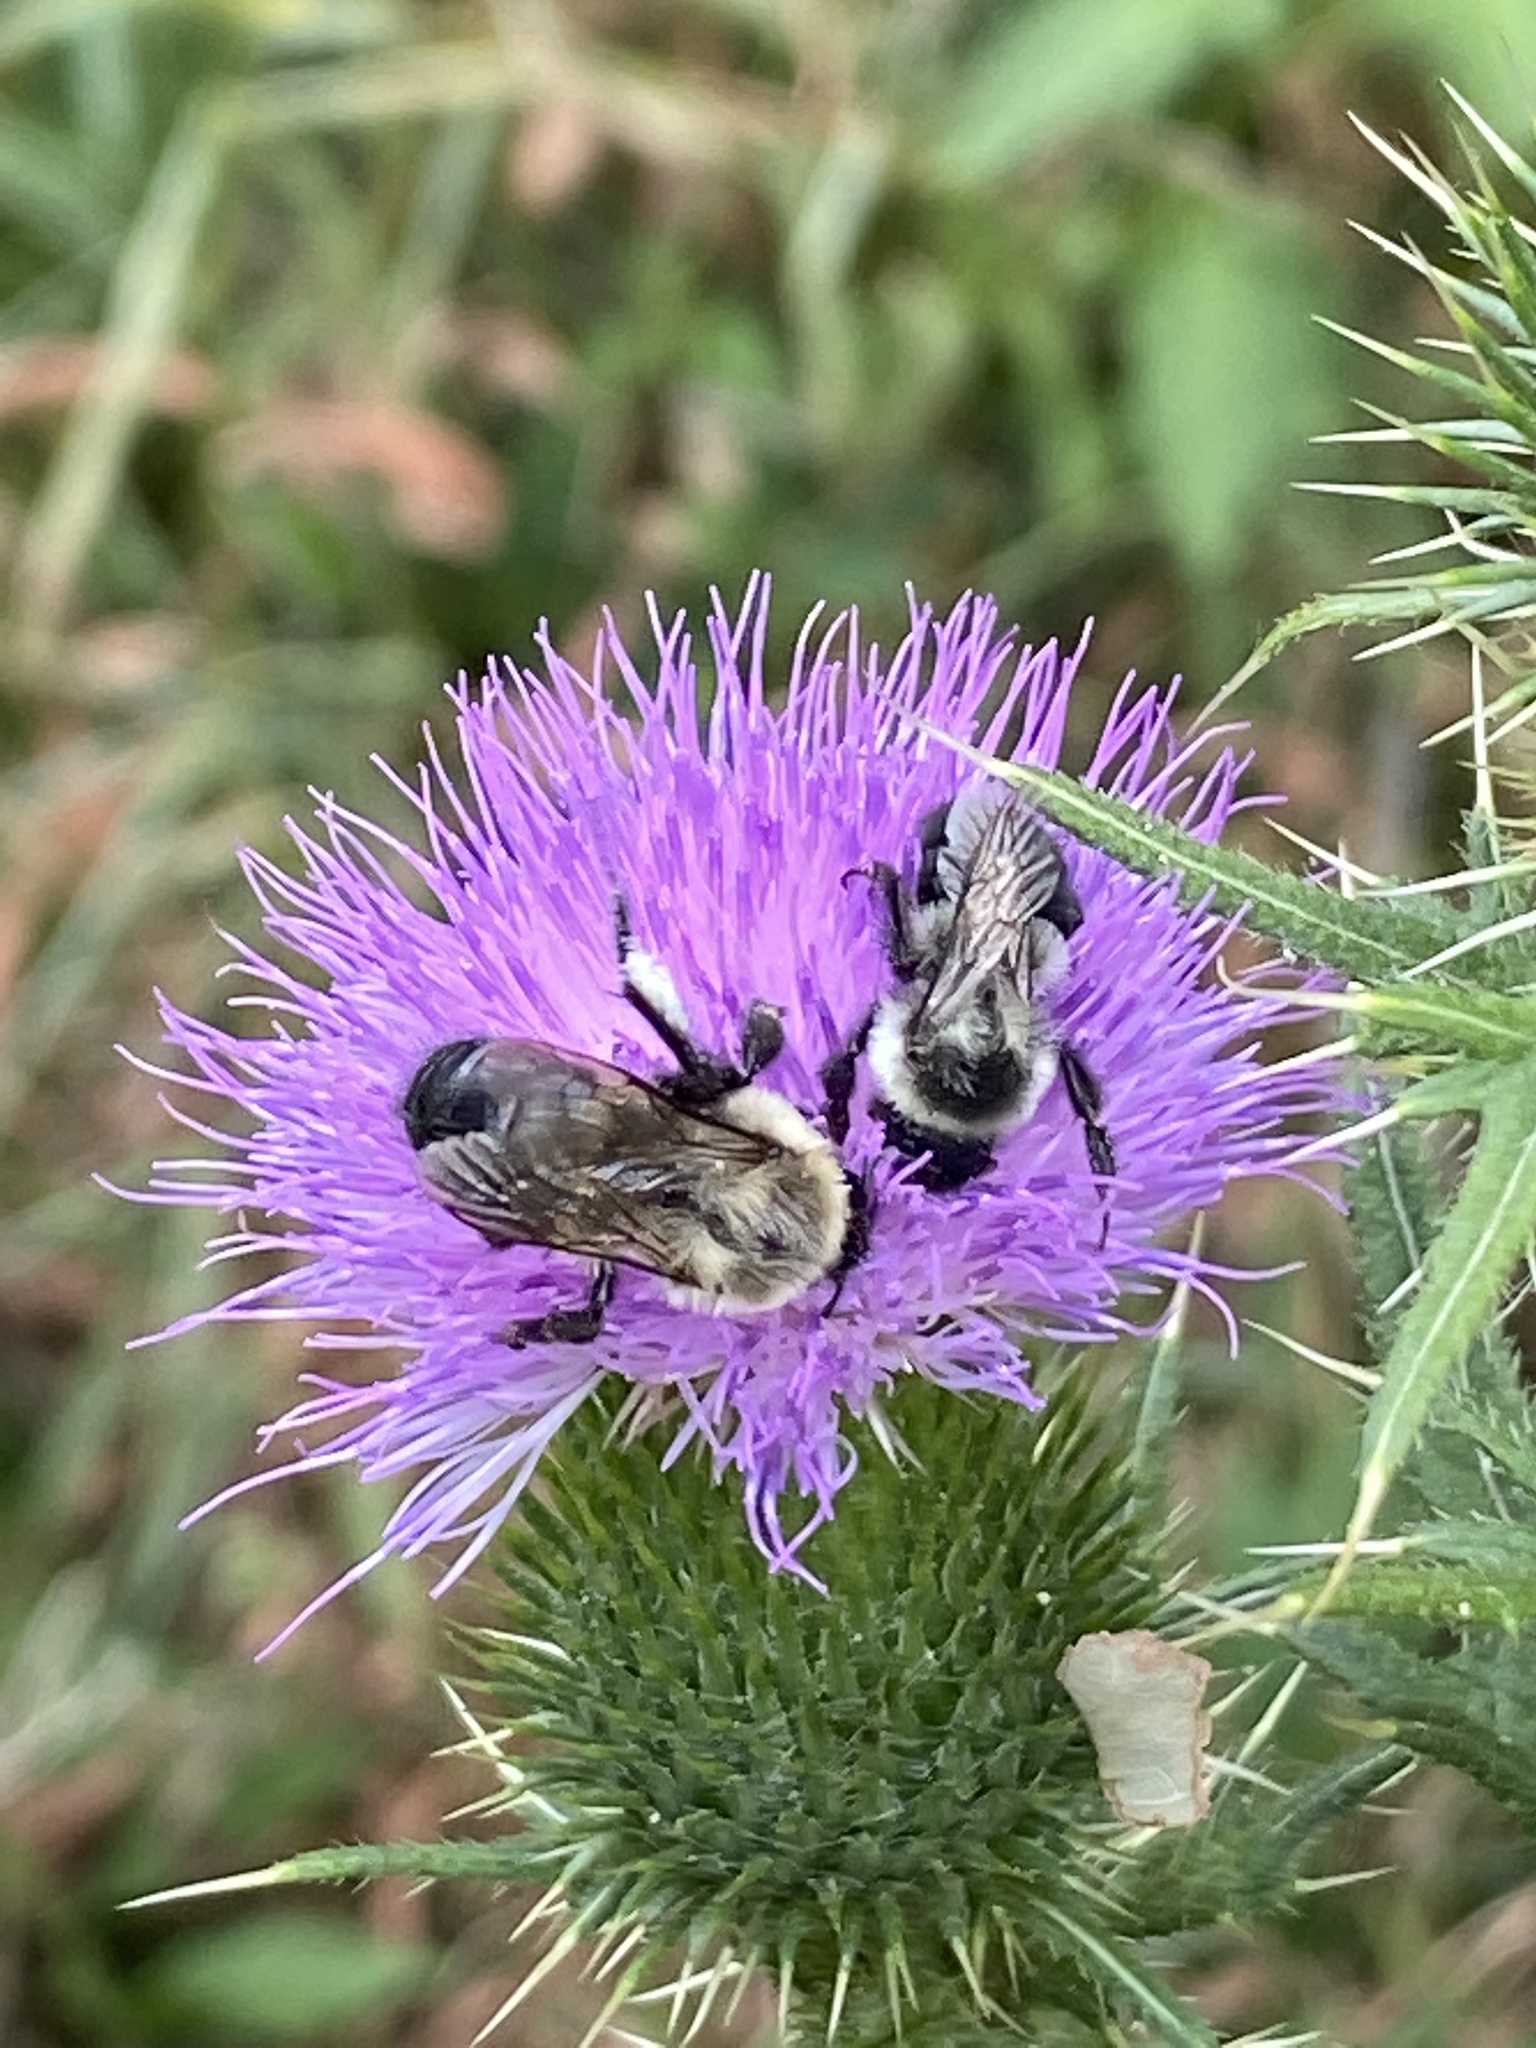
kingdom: Animalia
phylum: Arthropoda
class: Insecta
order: Hymenoptera
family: Apidae
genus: Bombus
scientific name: Bombus impatiens
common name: Common eastern bumble bee
